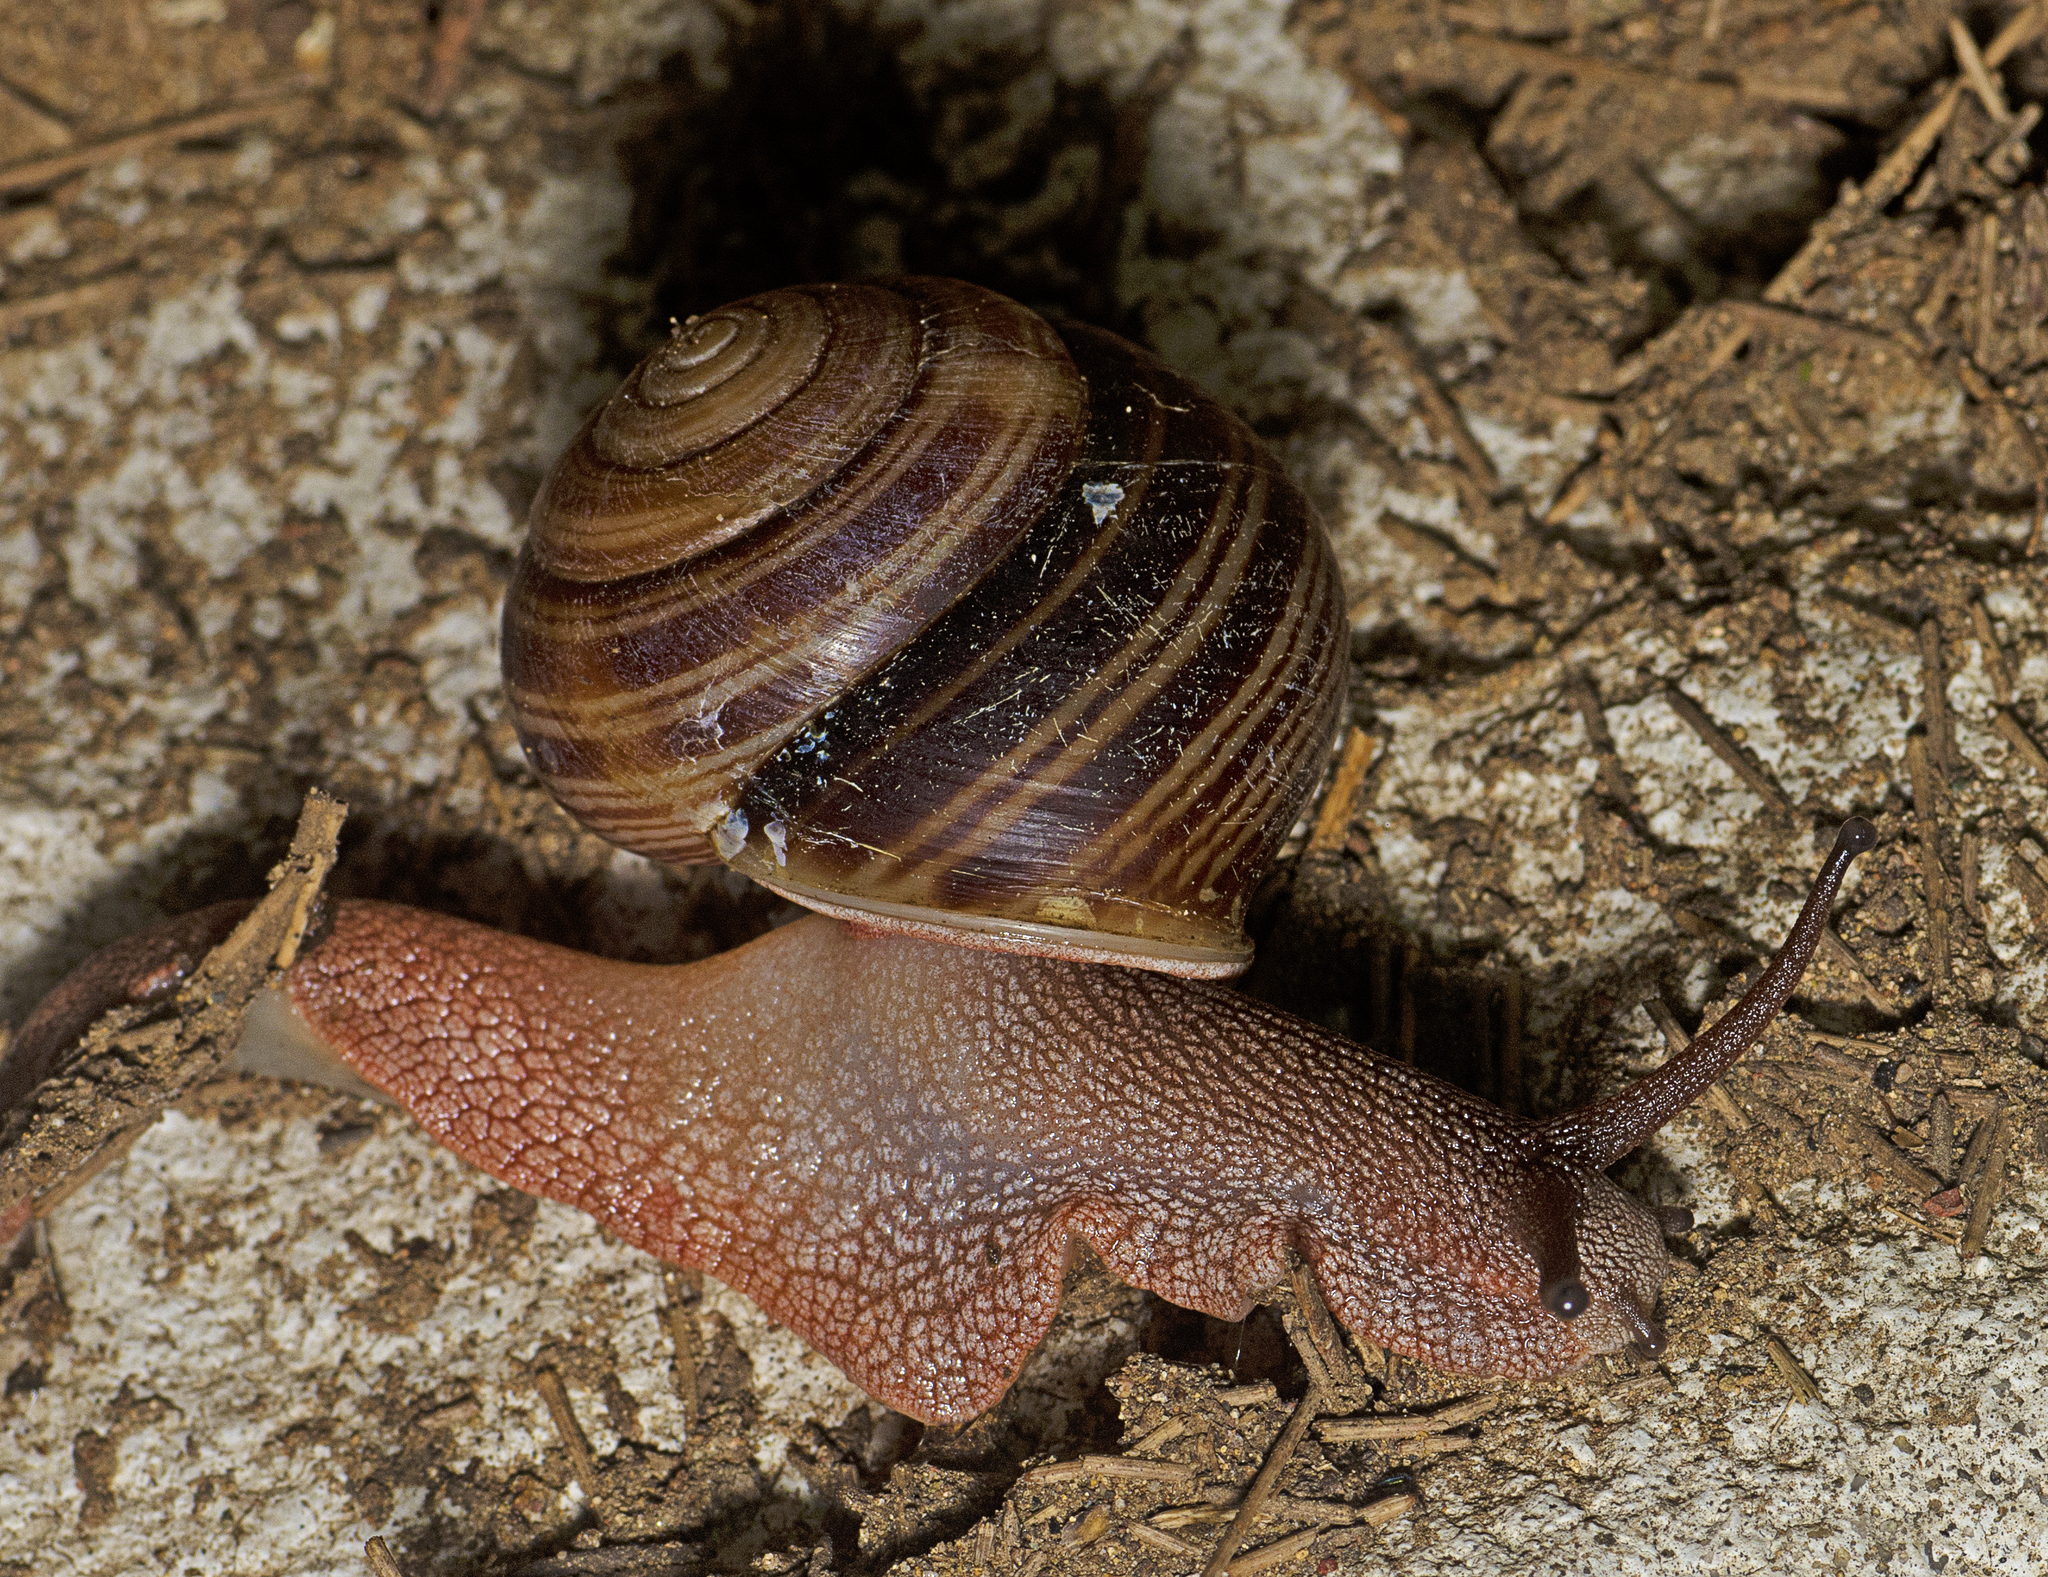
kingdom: Animalia
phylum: Mollusca
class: Gastropoda
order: Stylommatophora
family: Camaenidae
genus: Figuladra
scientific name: Figuladra reducta
